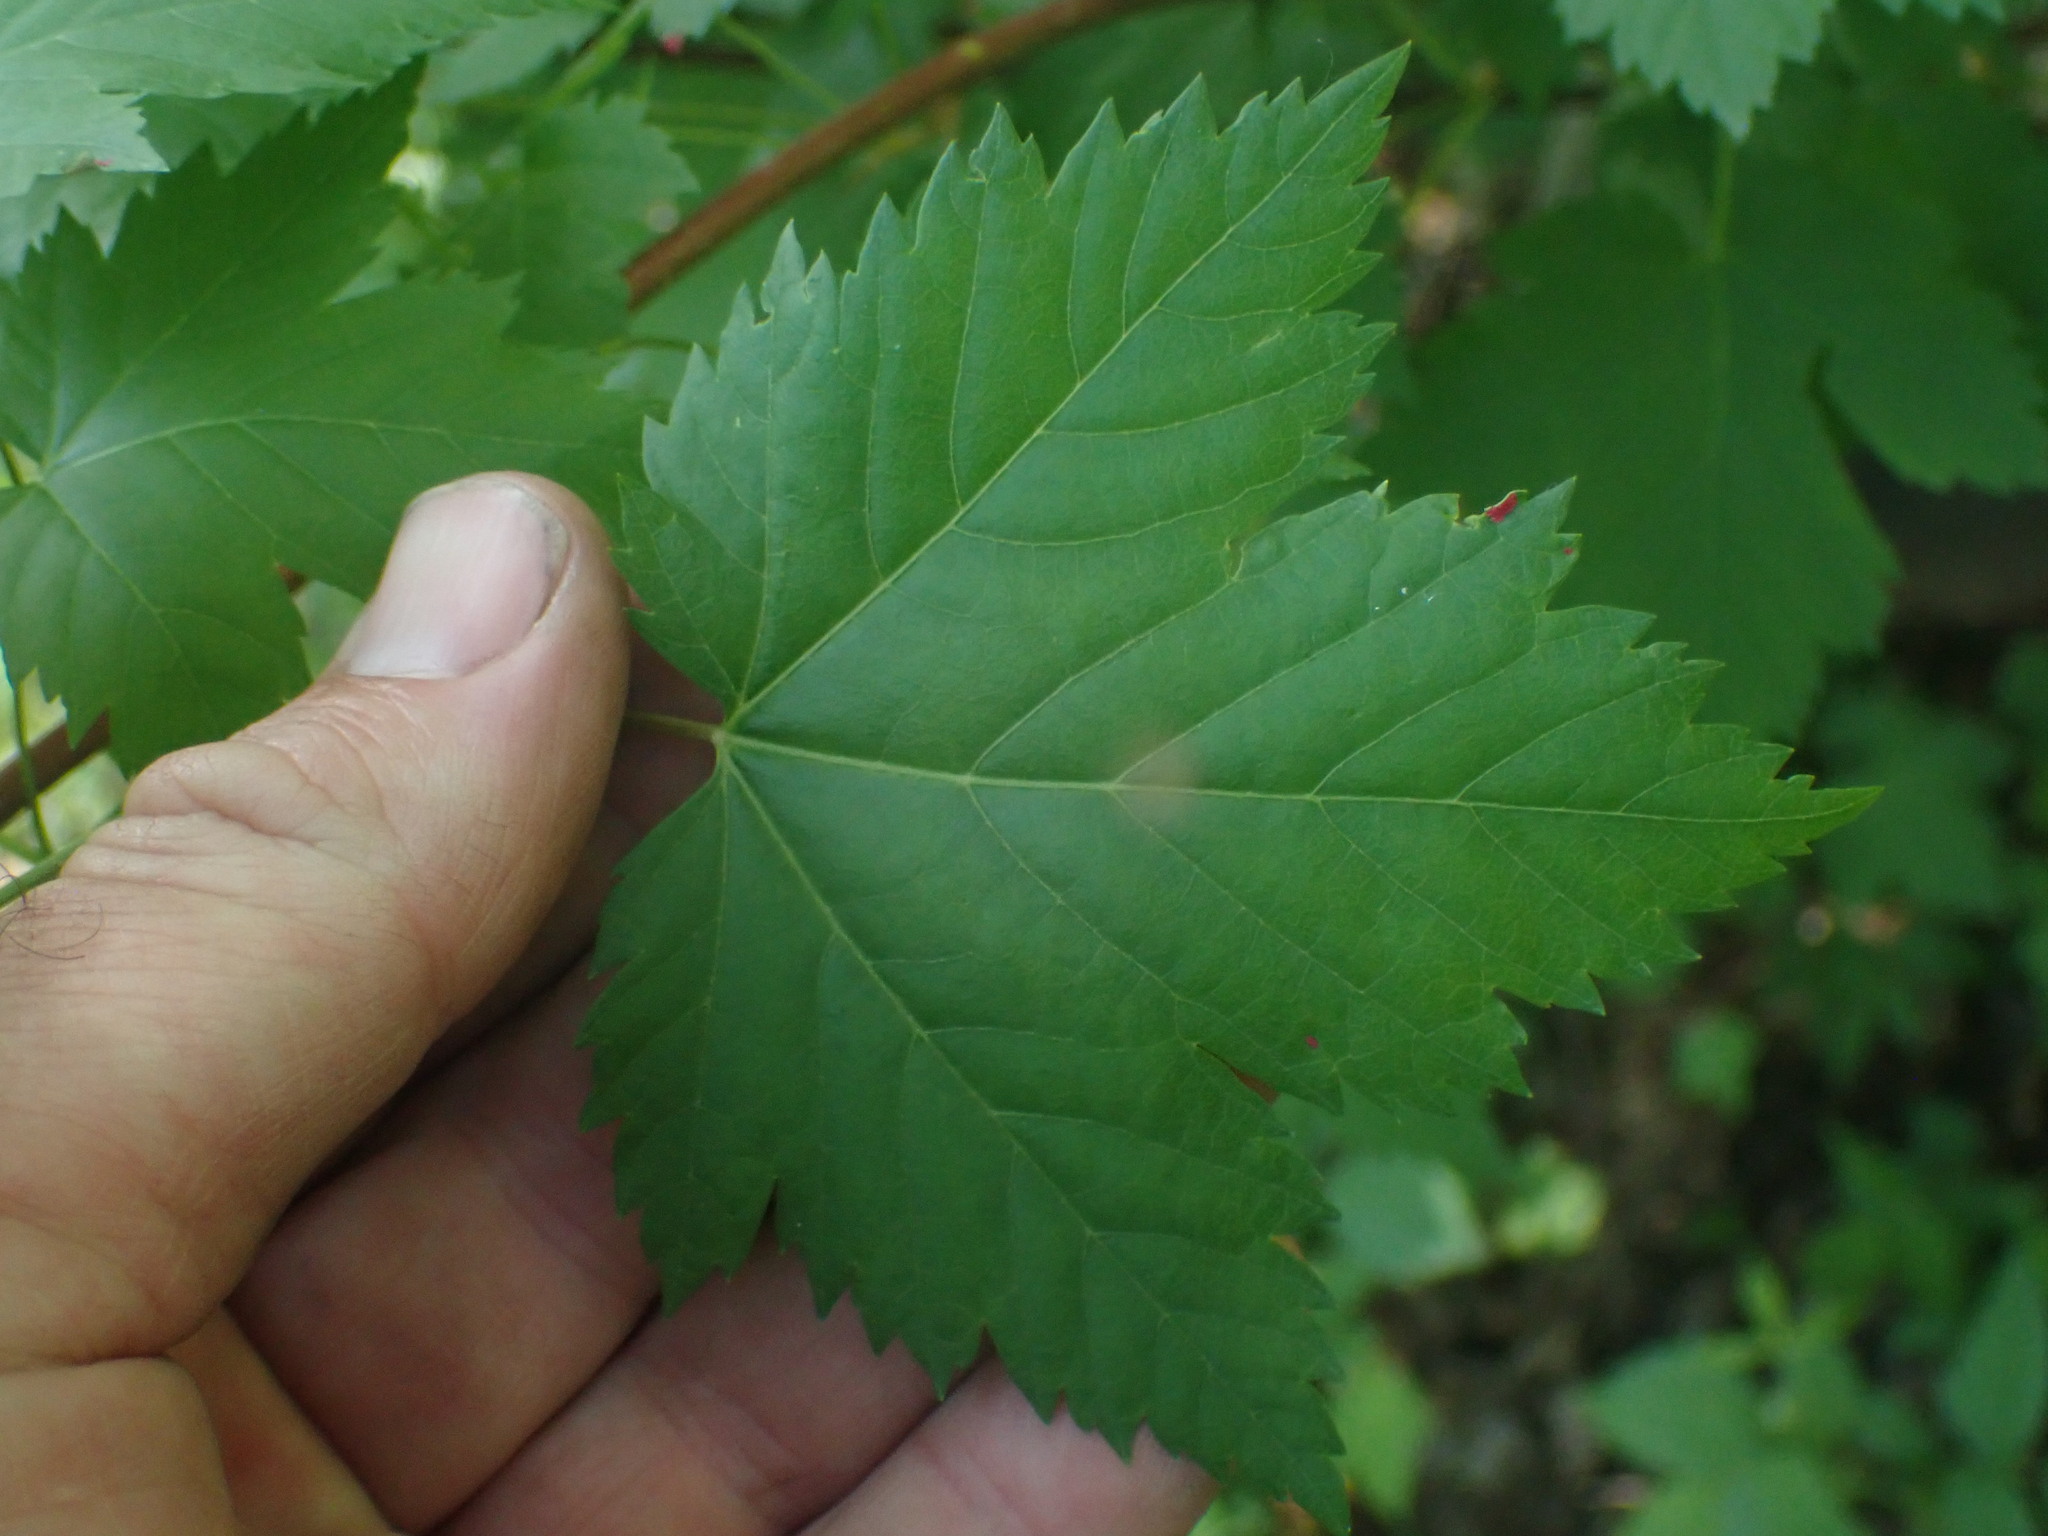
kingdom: Plantae
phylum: Tracheophyta
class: Magnoliopsida
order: Sapindales
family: Sapindaceae
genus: Acer
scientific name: Acer glabrum
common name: Rocky mountain maple
